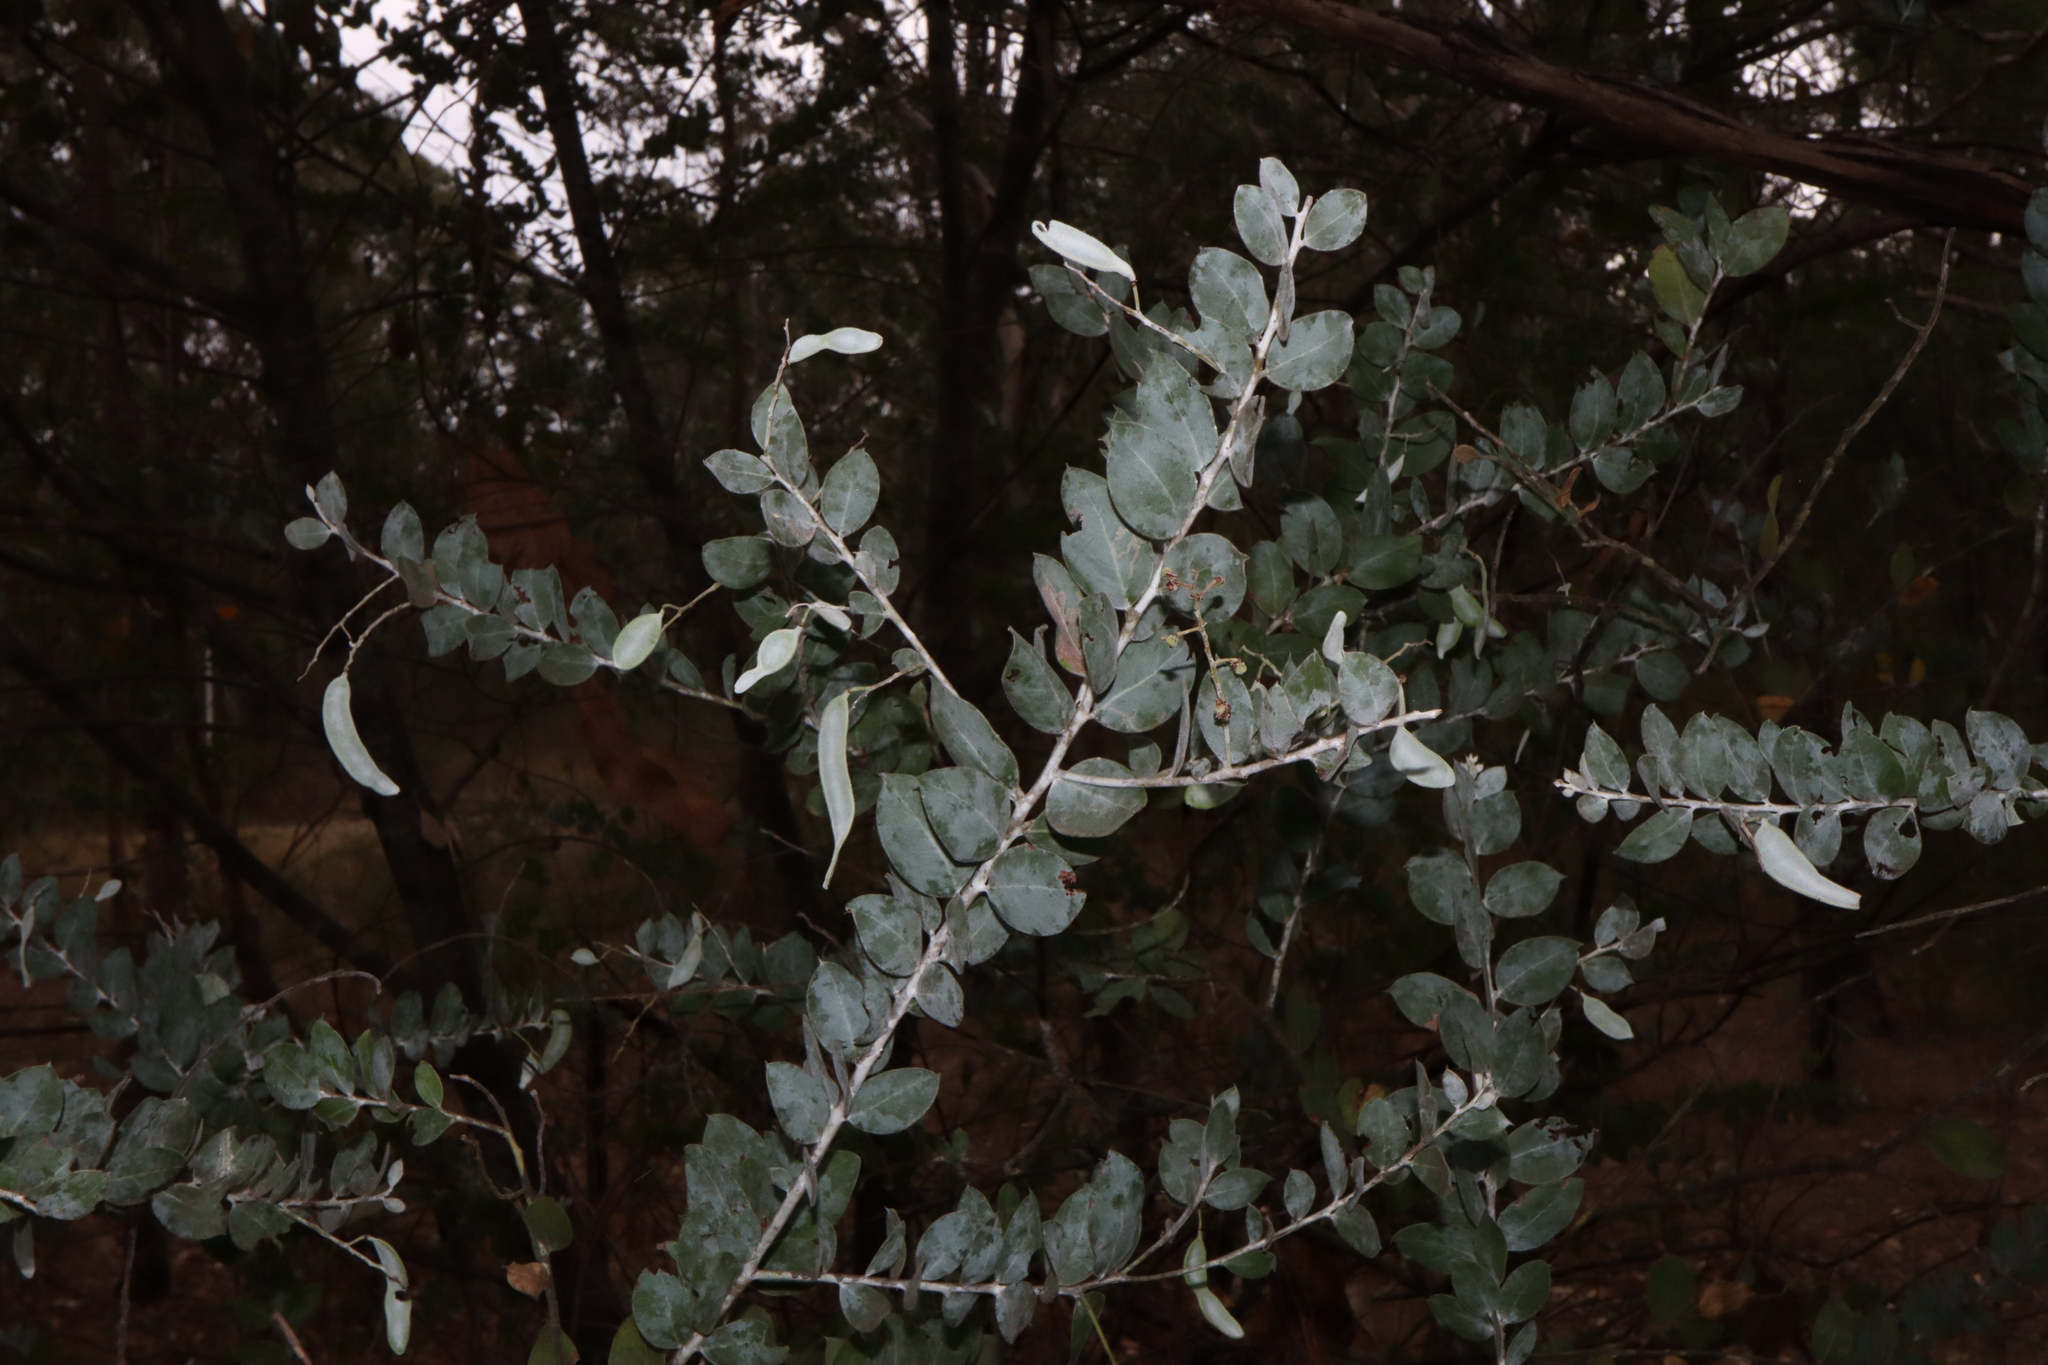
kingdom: Plantae
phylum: Tracheophyta
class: Magnoliopsida
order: Fabales
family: Fabaceae
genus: Acacia
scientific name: Acacia podalyriifolia
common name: Pearl wattle
